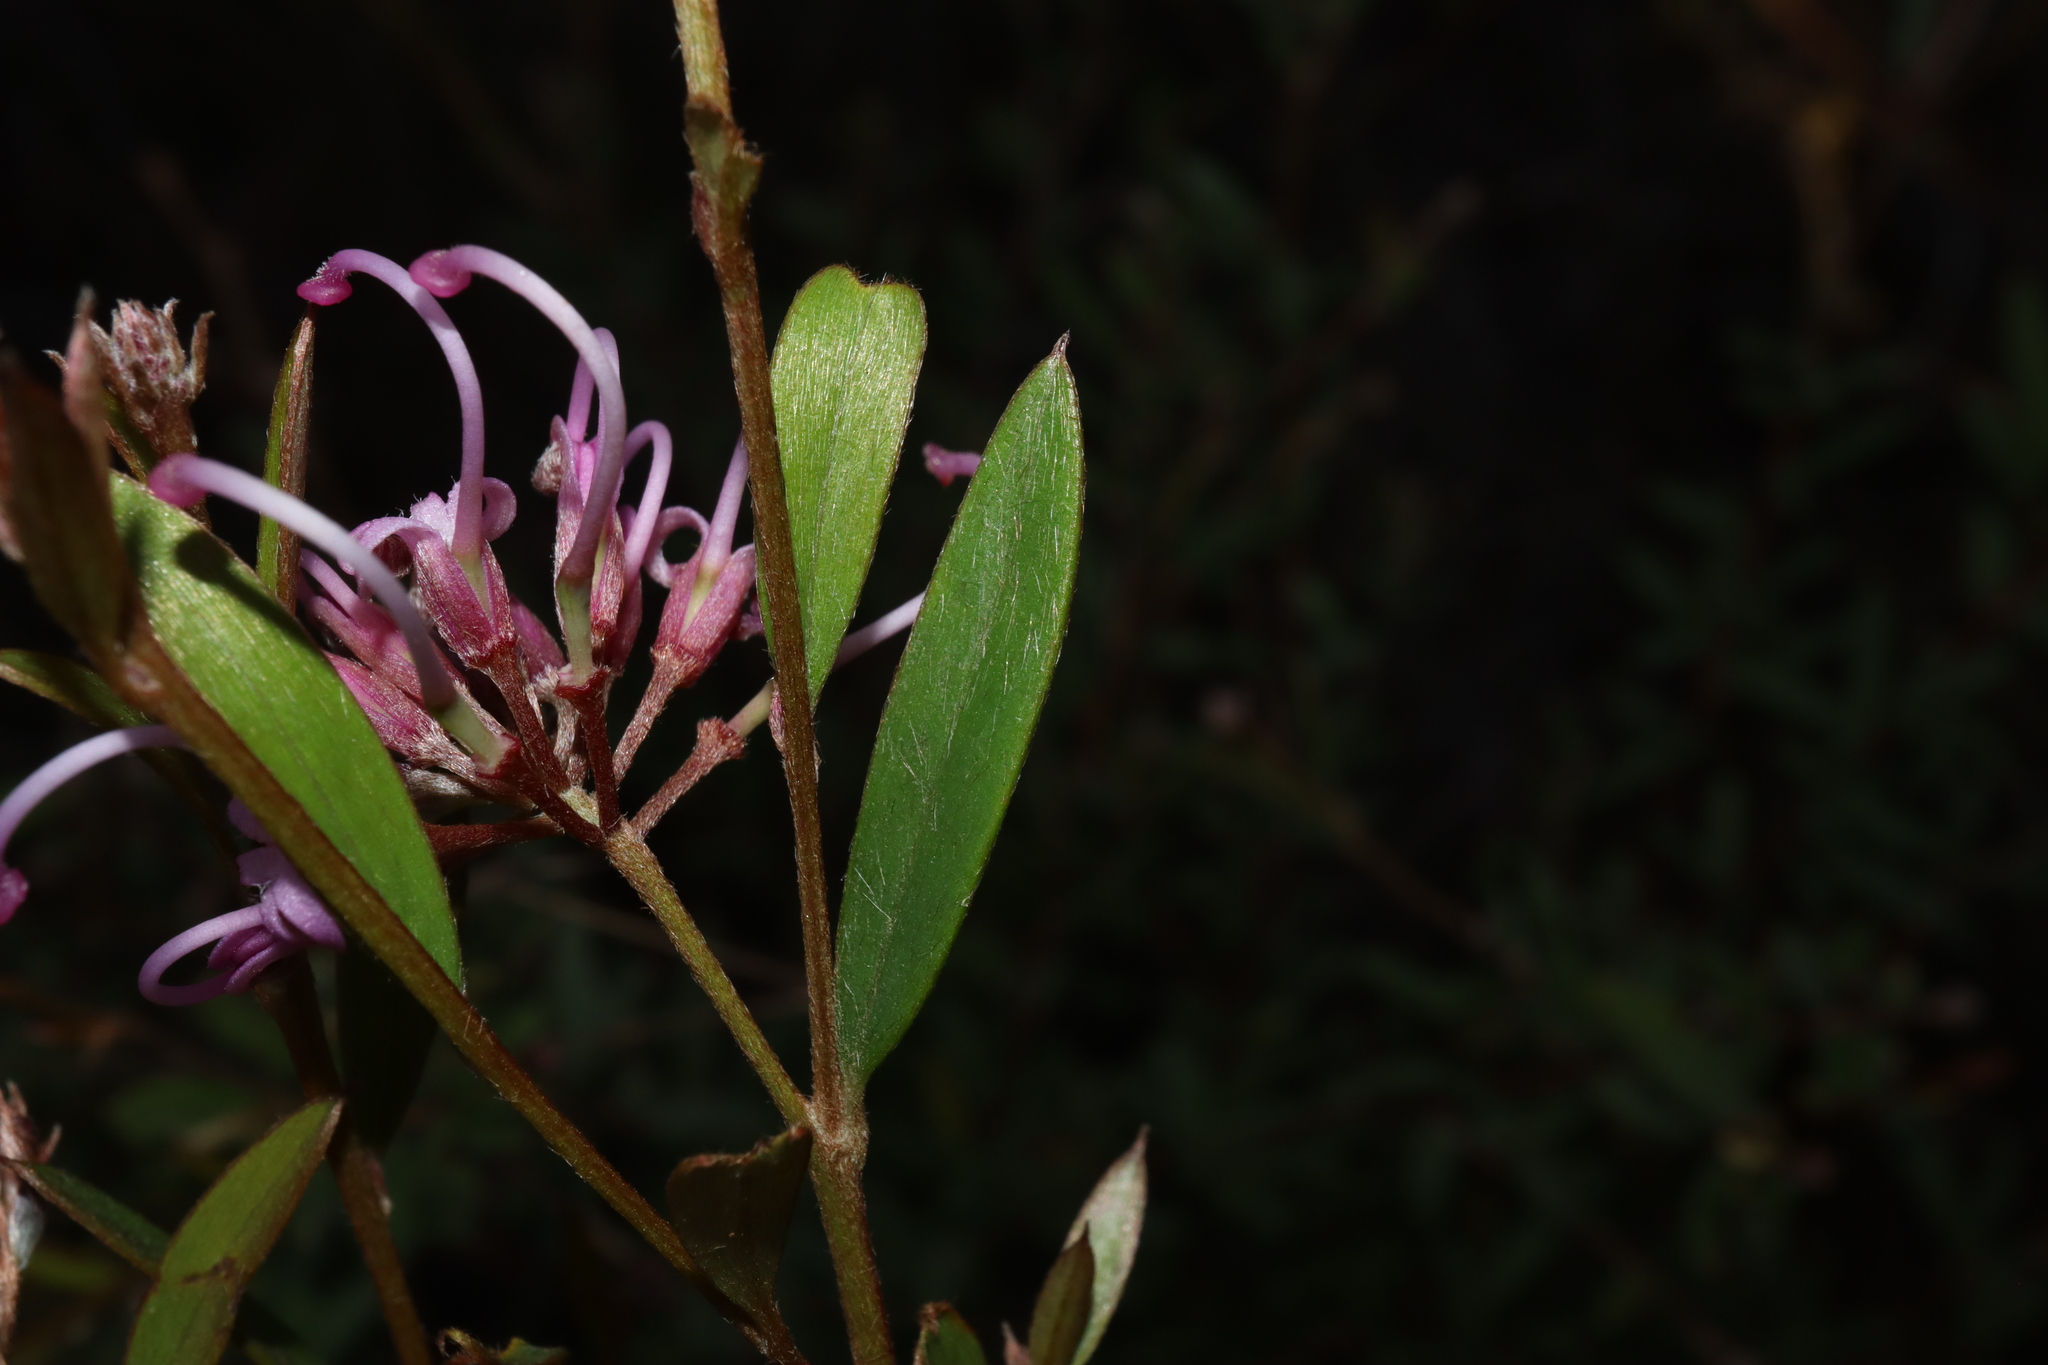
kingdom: Plantae
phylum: Tracheophyta
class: Magnoliopsida
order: Proteales
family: Proteaceae
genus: Grevillea
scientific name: Grevillea sericea
